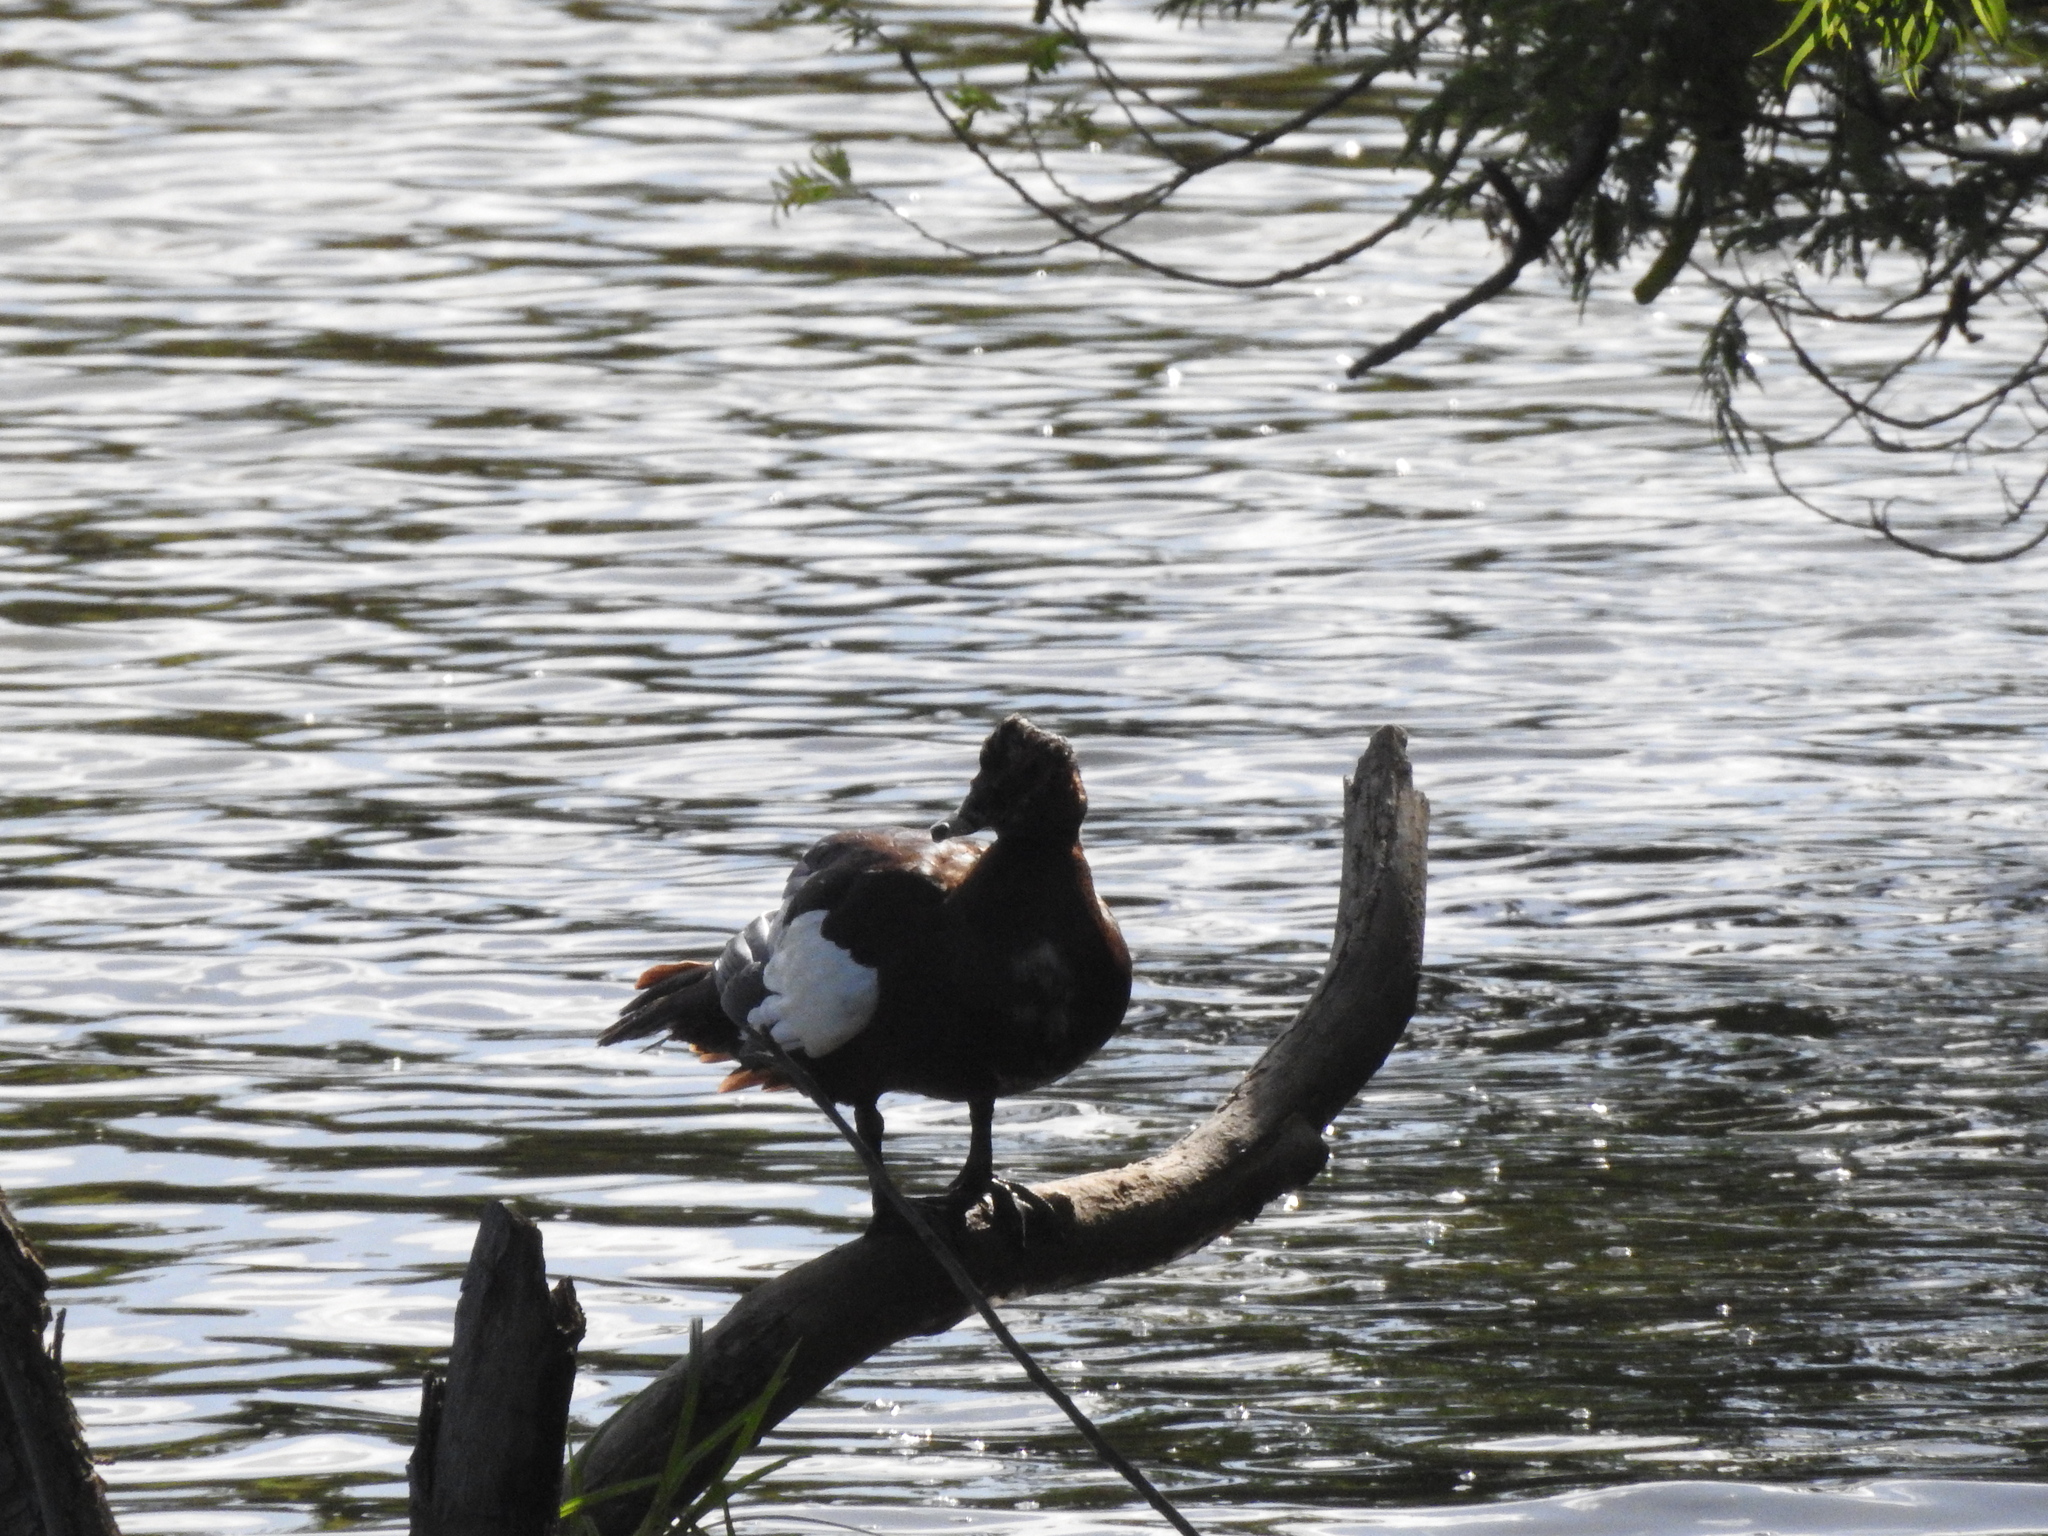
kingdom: Animalia
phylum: Chordata
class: Aves
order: Anseriformes
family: Anatidae
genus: Cairina
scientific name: Cairina moschata
